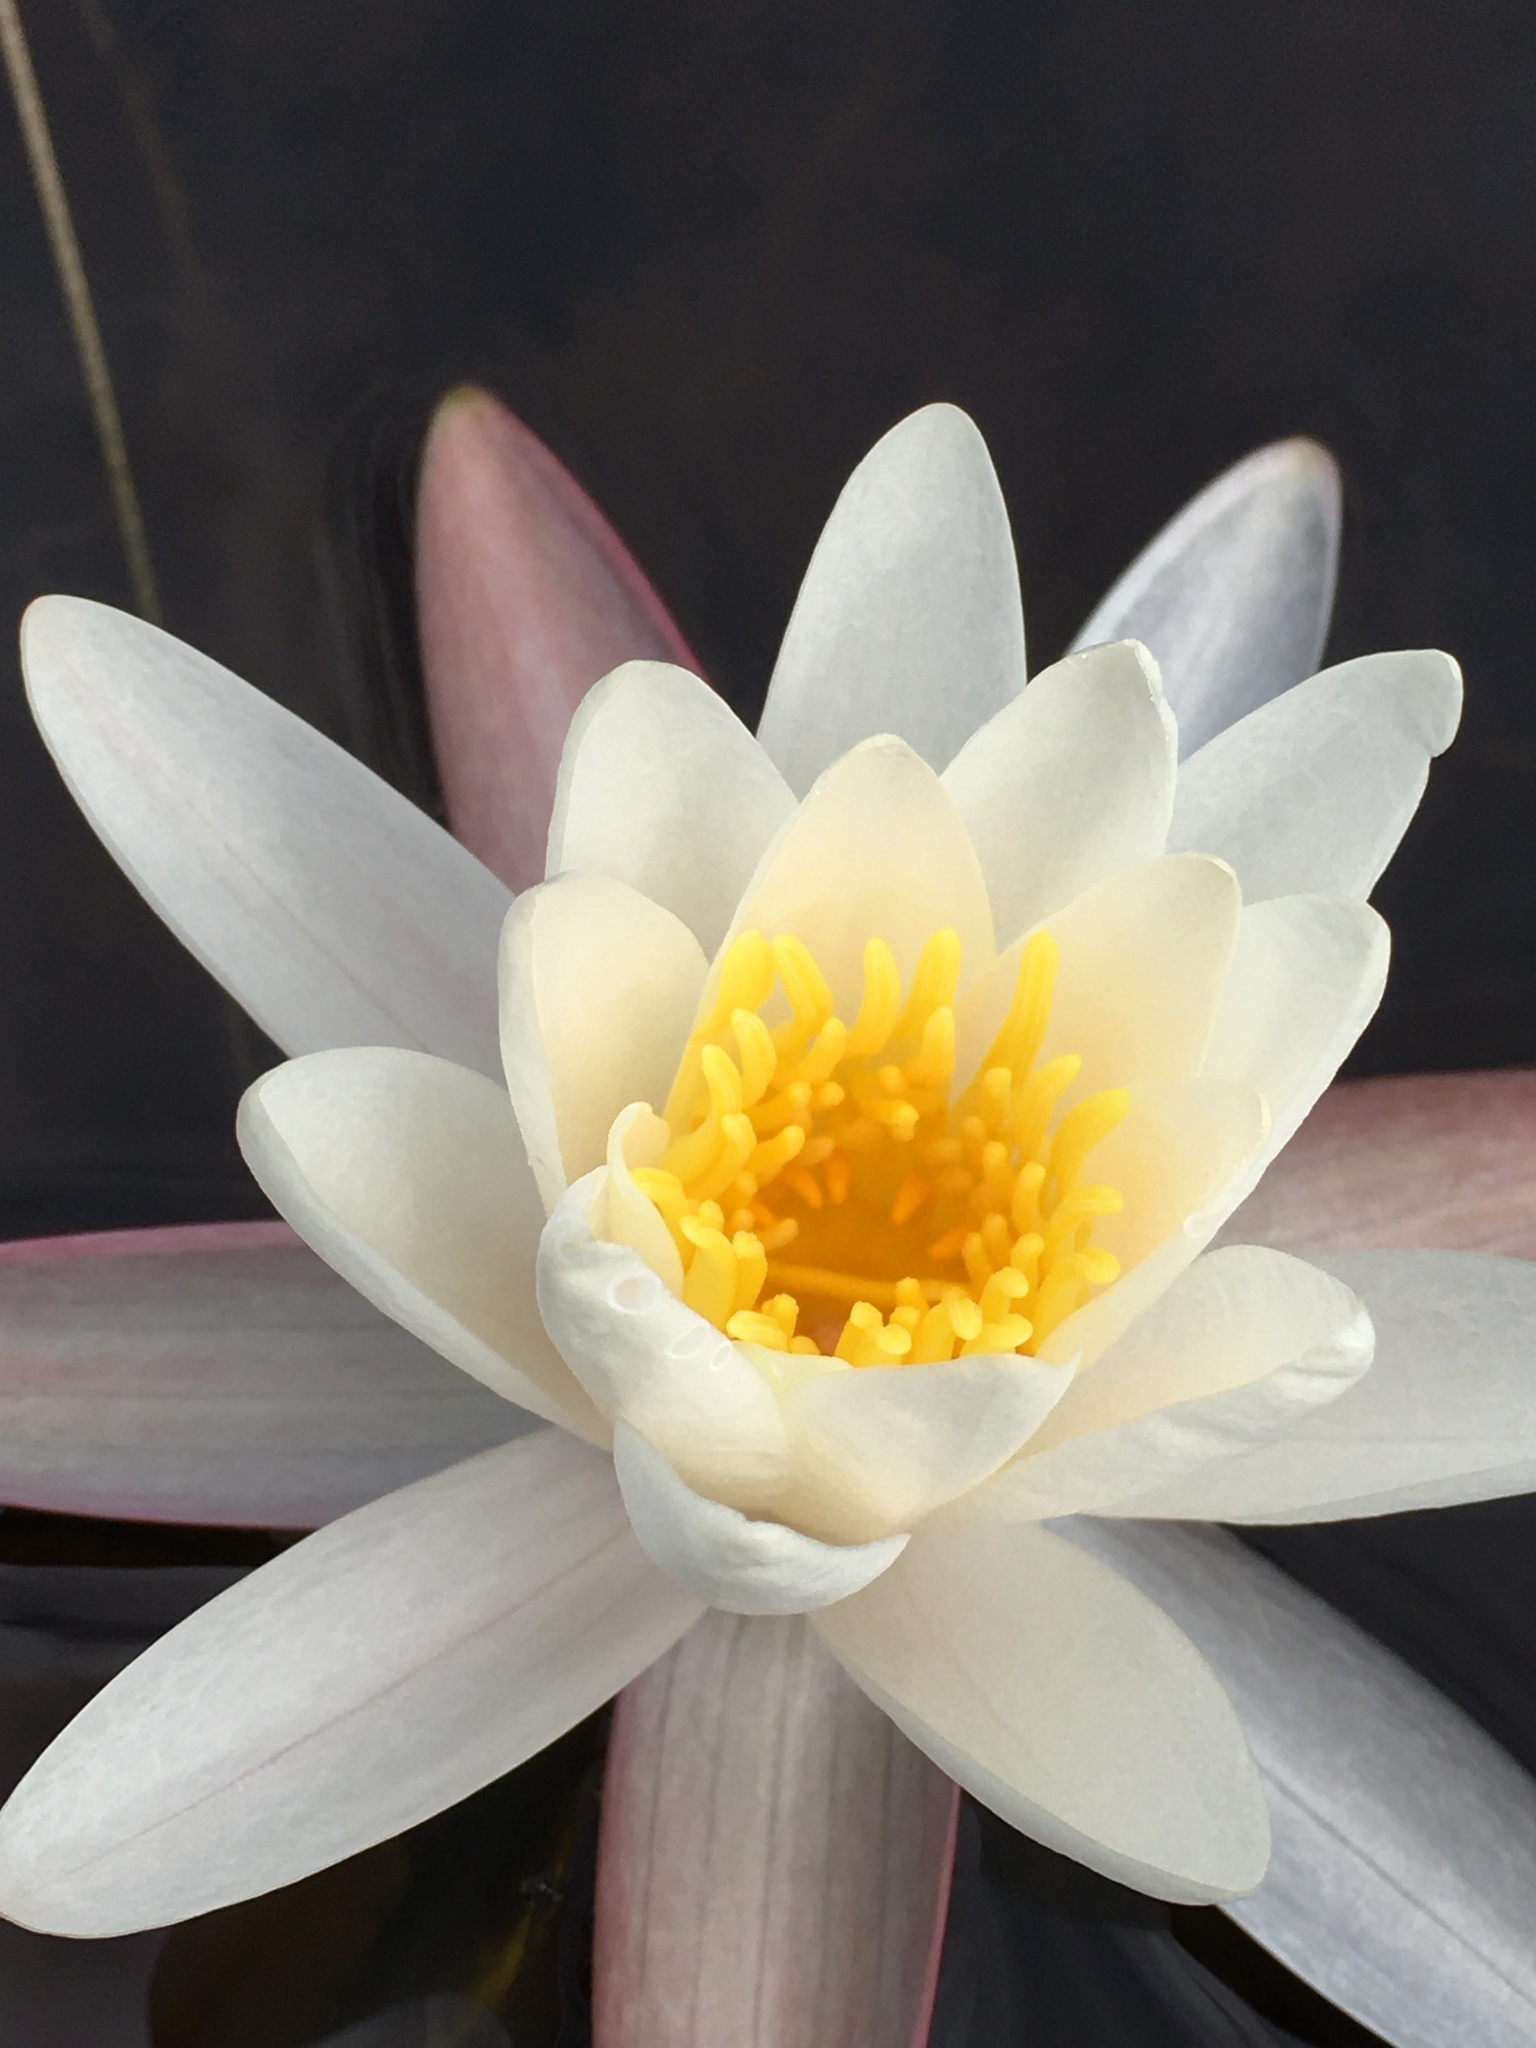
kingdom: Plantae
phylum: Tracheophyta
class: Magnoliopsida
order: Nymphaeales
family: Nymphaeaceae
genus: Nymphaea
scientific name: Nymphaea odorata
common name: Fragrant water-lily
